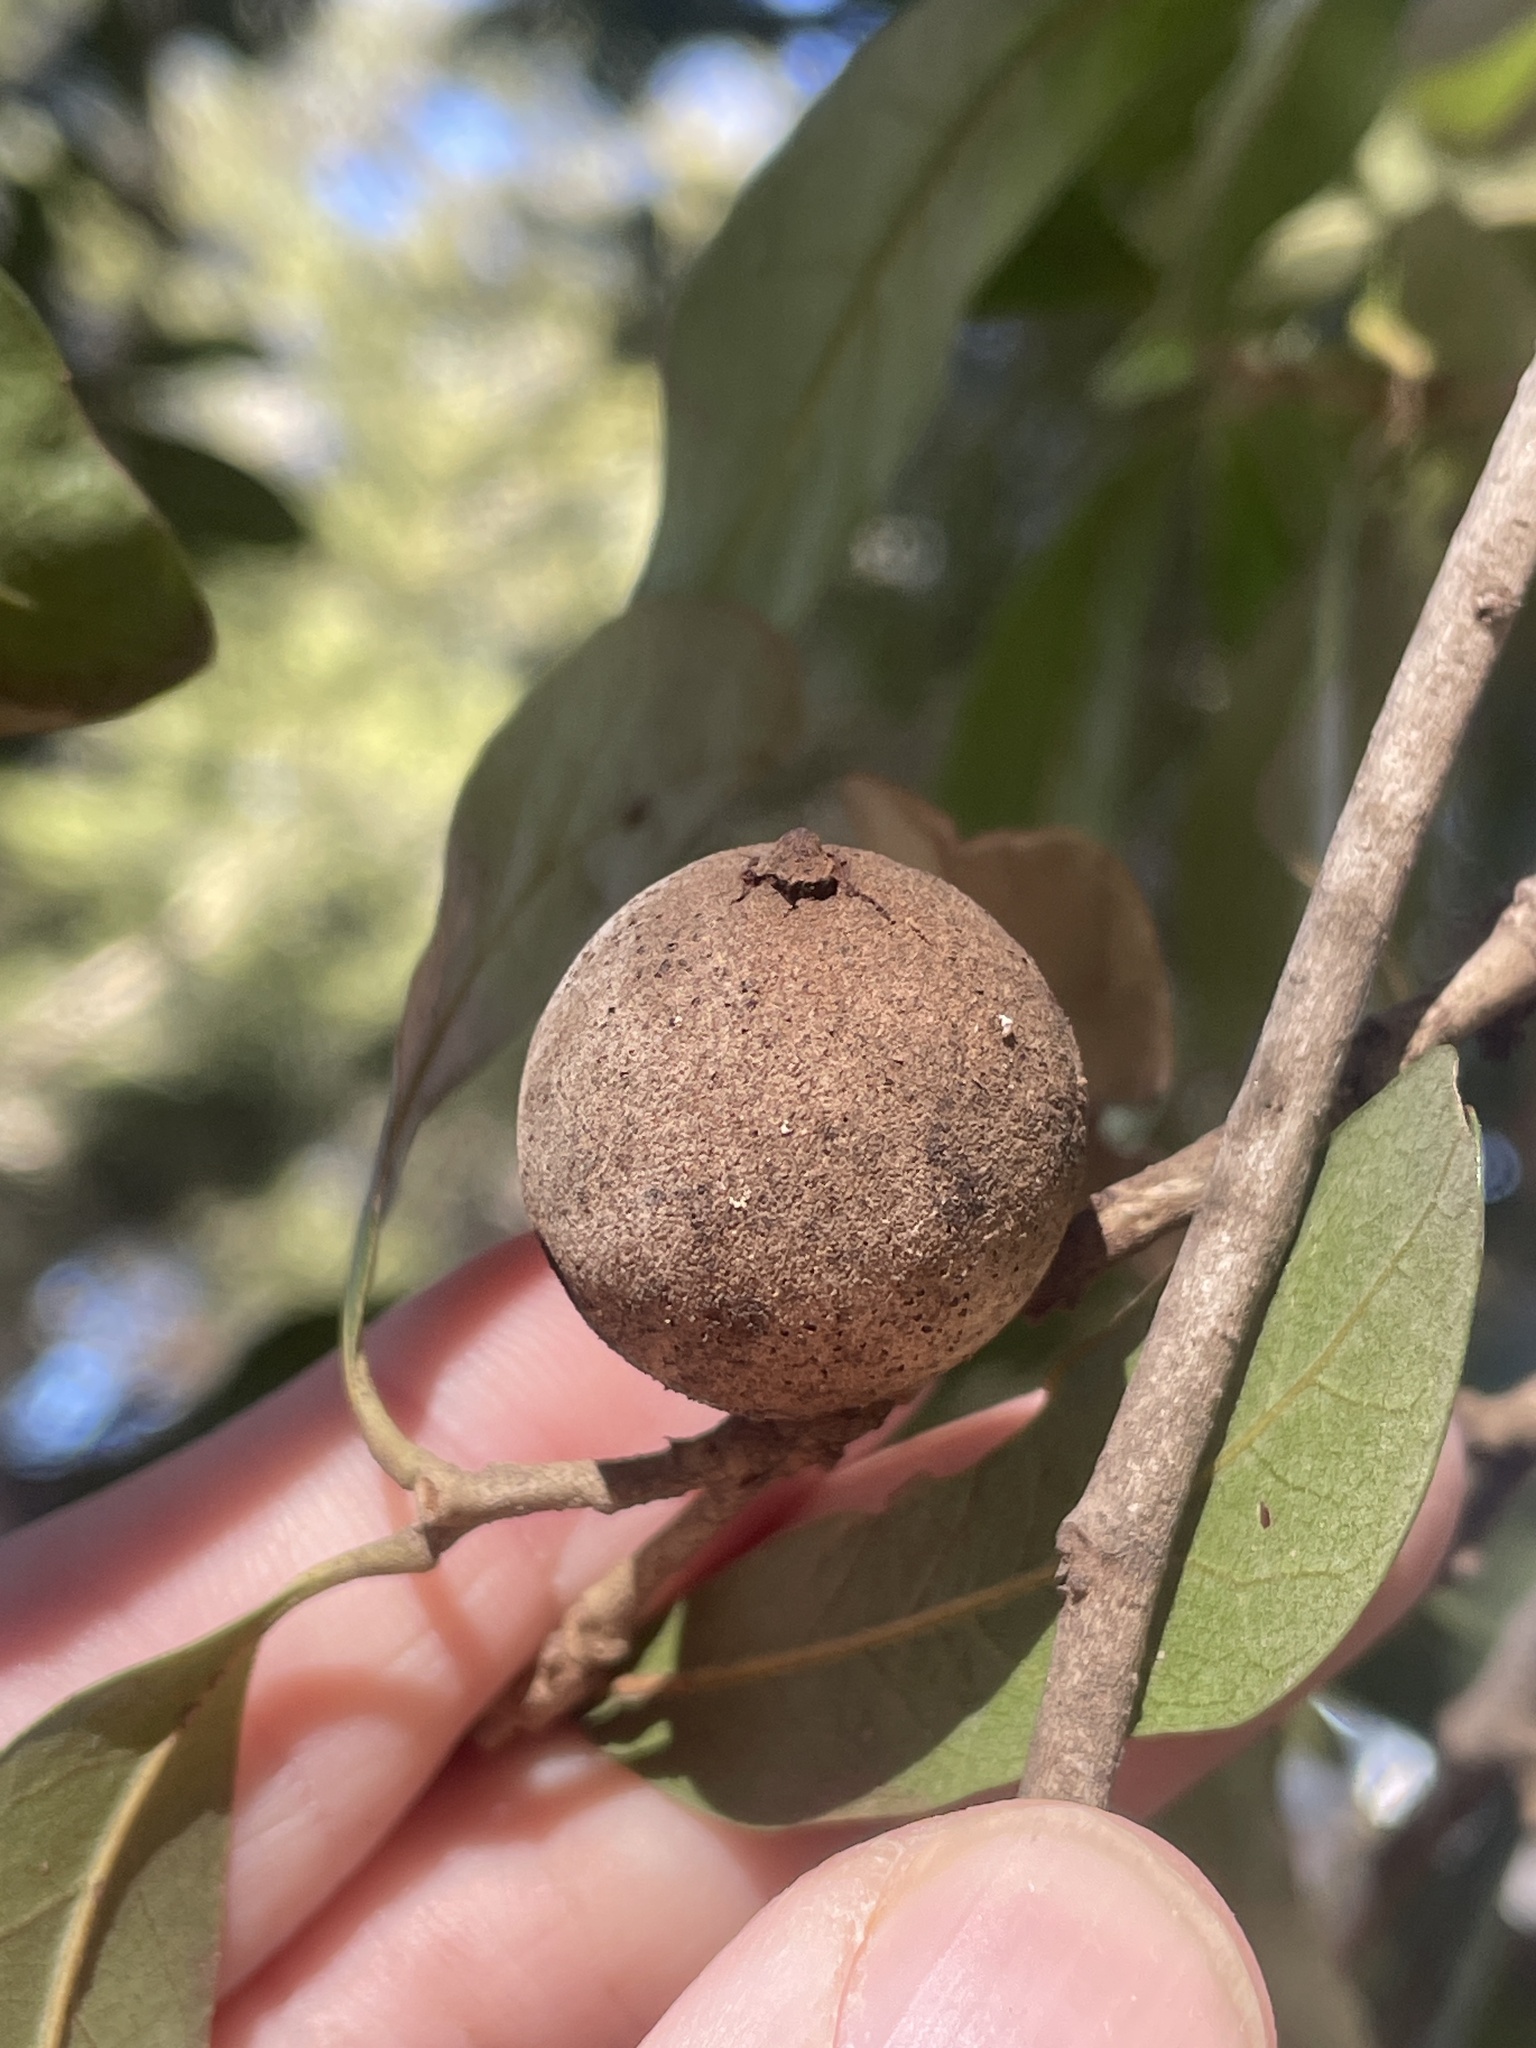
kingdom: Animalia
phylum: Arthropoda
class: Insecta
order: Hymenoptera
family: Cynipidae
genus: Disholcaspis
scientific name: Disholcaspis
